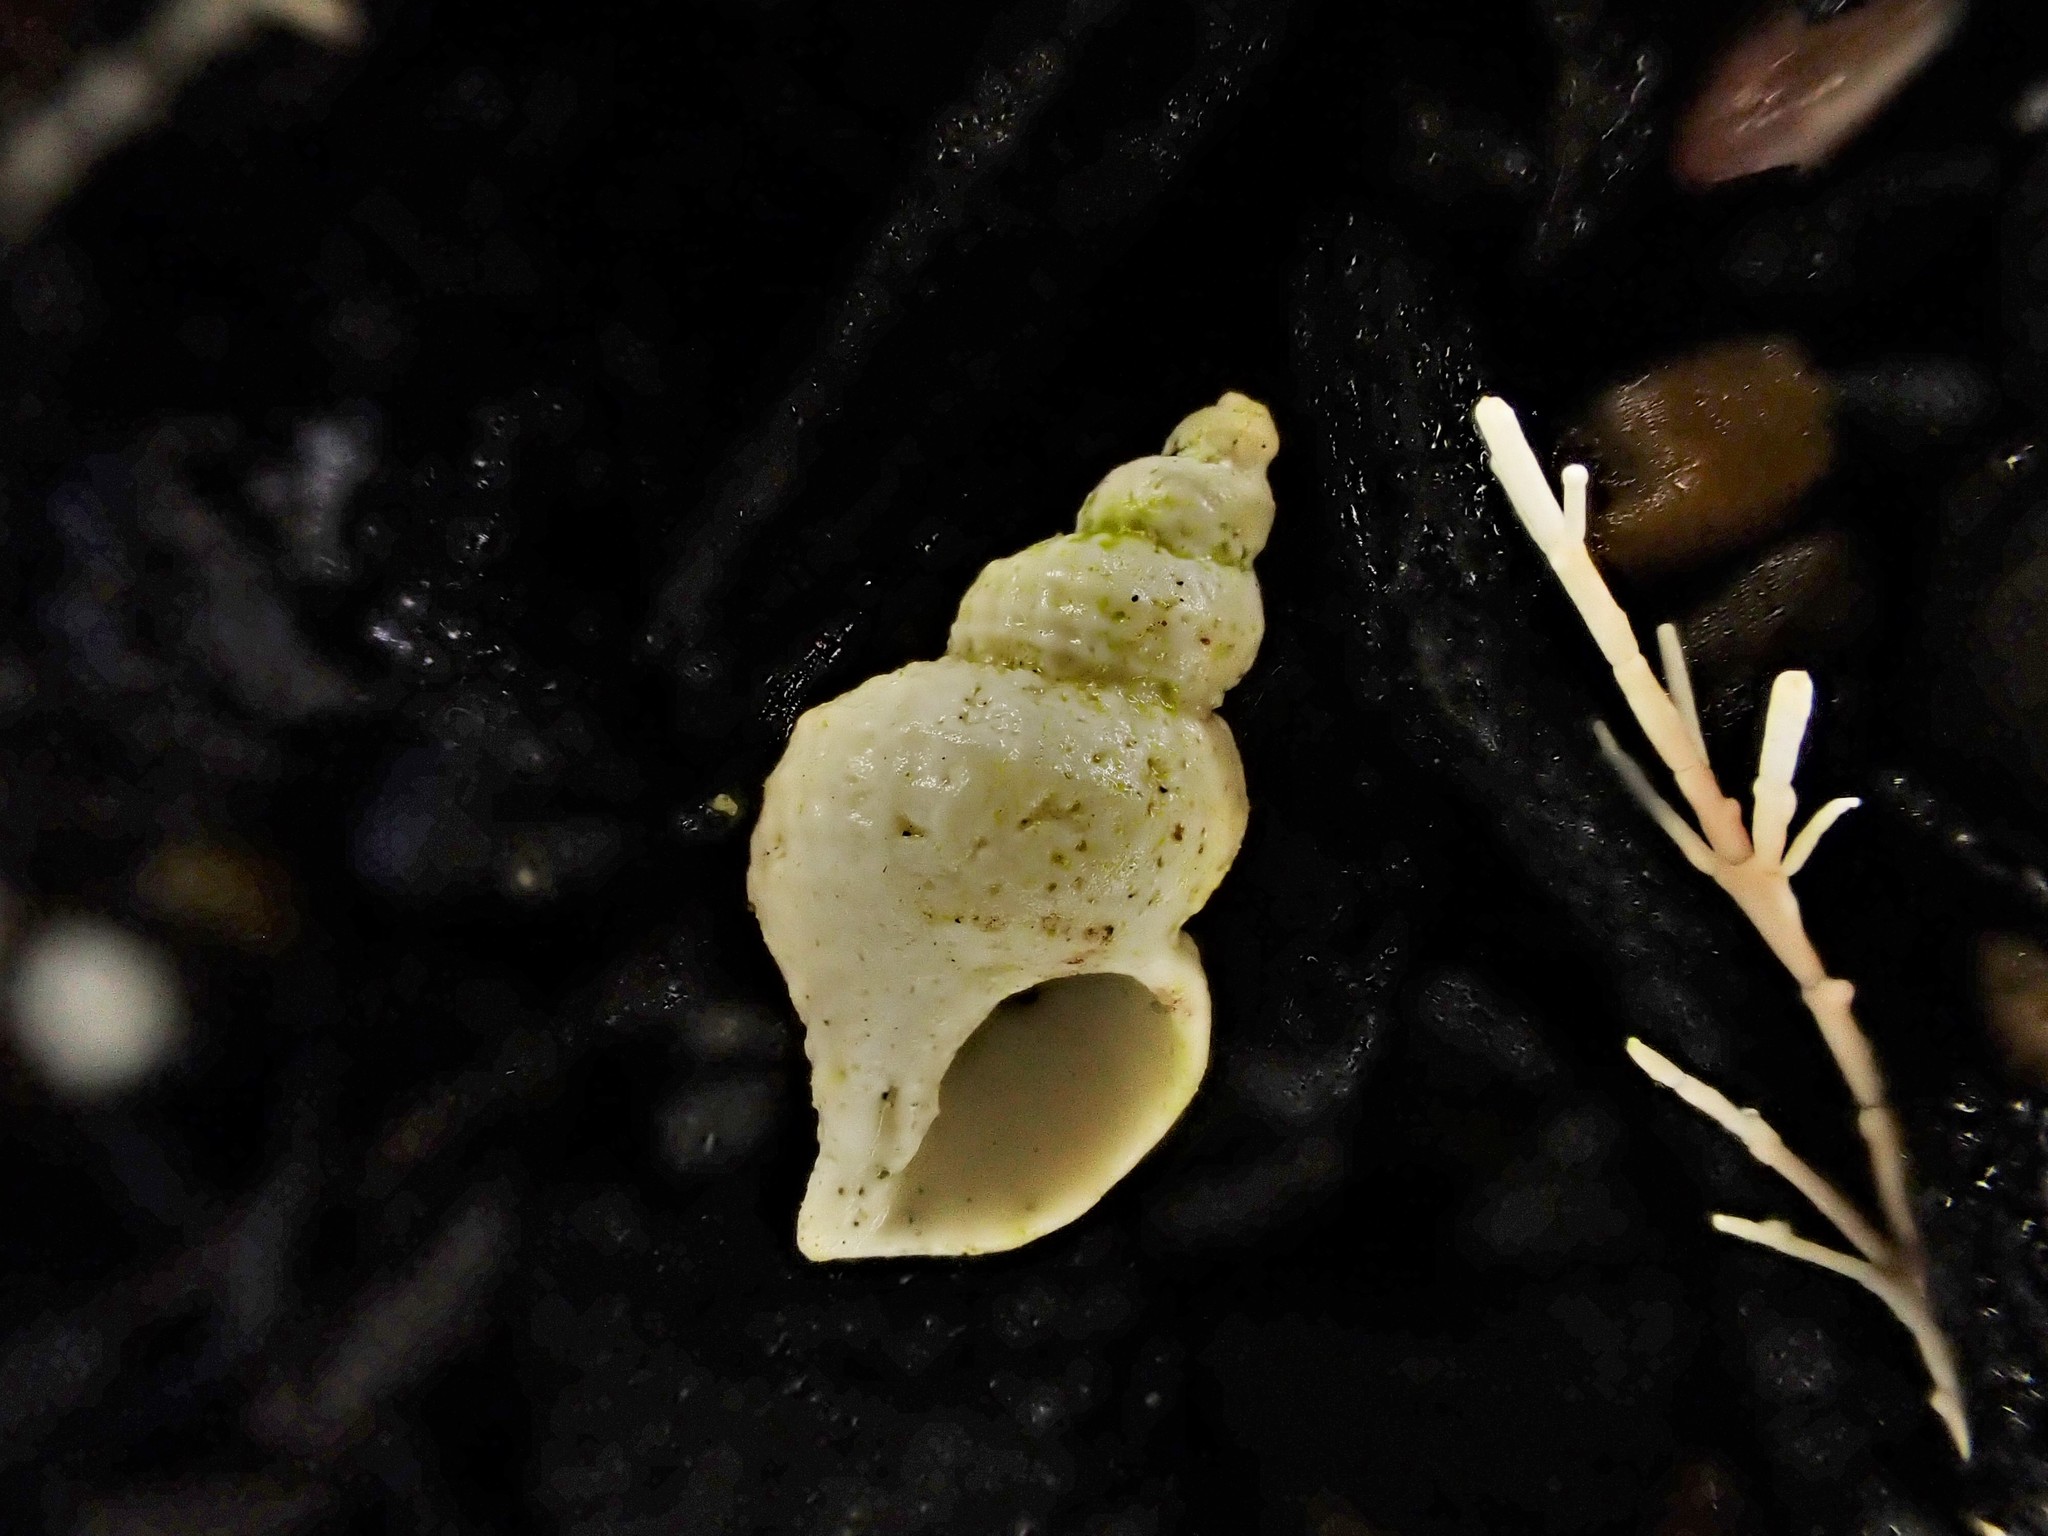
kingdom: Animalia
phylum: Mollusca
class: Gastropoda
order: Littorinimorpha
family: Capulidae
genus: Trichosirius
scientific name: Trichosirius inornatus
